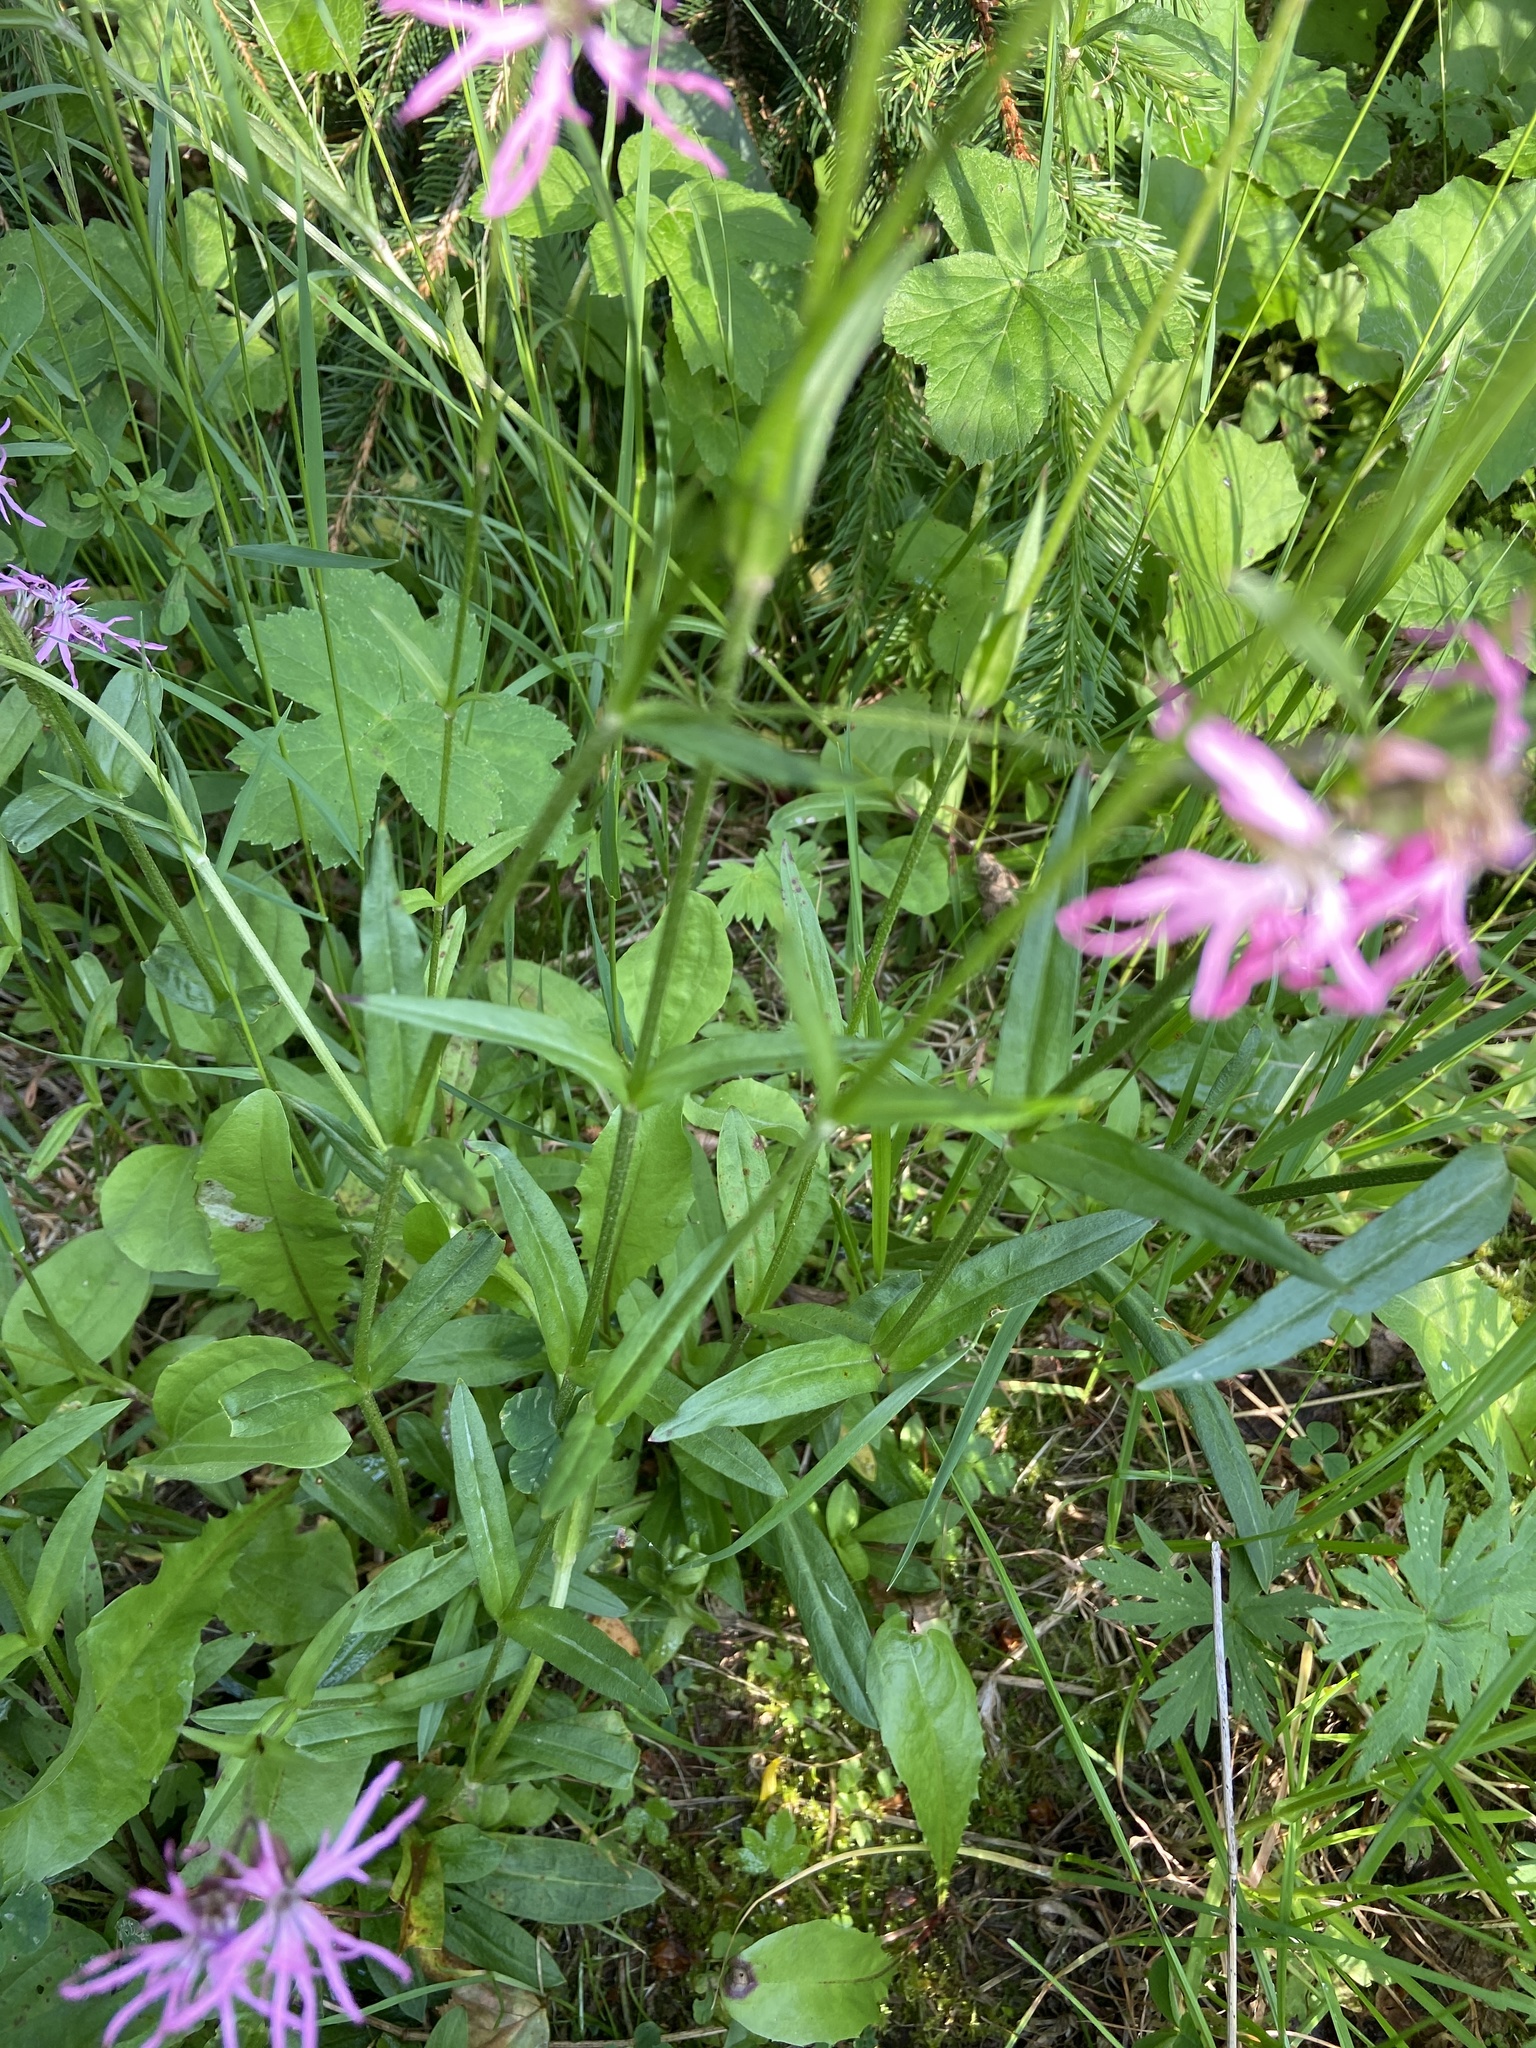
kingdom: Plantae
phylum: Tracheophyta
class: Magnoliopsida
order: Caryophyllales
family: Caryophyllaceae
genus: Silene
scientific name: Silene flos-cuculi
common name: Ragged-robin
